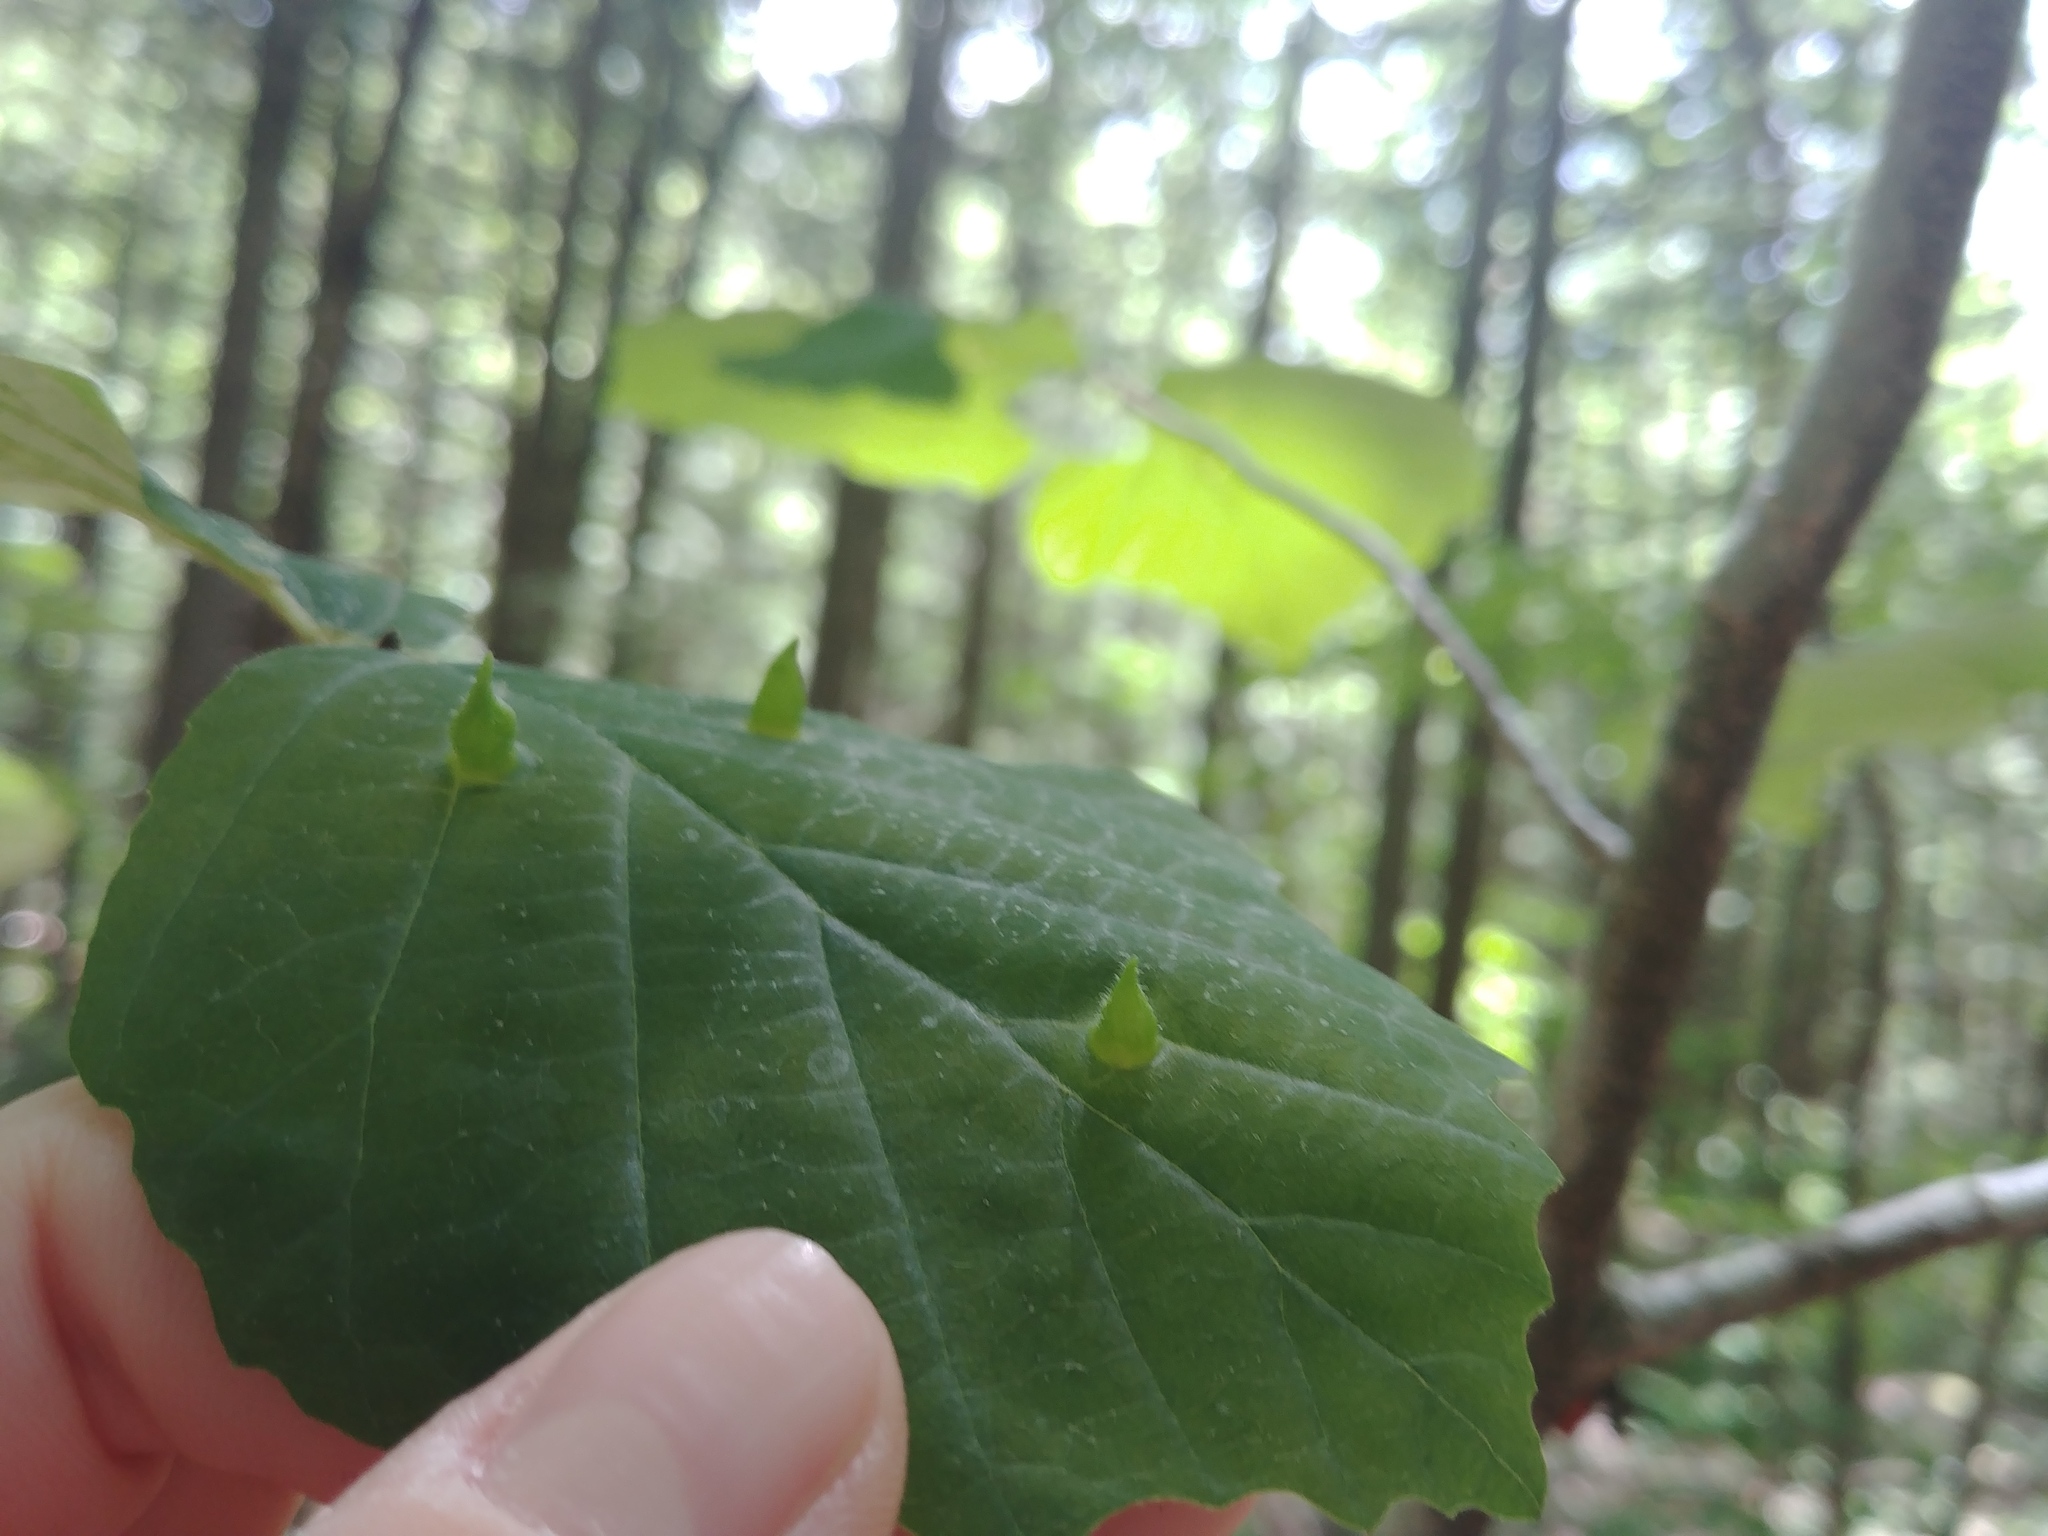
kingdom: Animalia
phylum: Arthropoda
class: Insecta
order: Hemiptera
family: Aphididae
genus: Hormaphis
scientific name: Hormaphis hamamelidis
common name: Witch-hazel cone gall aphid
